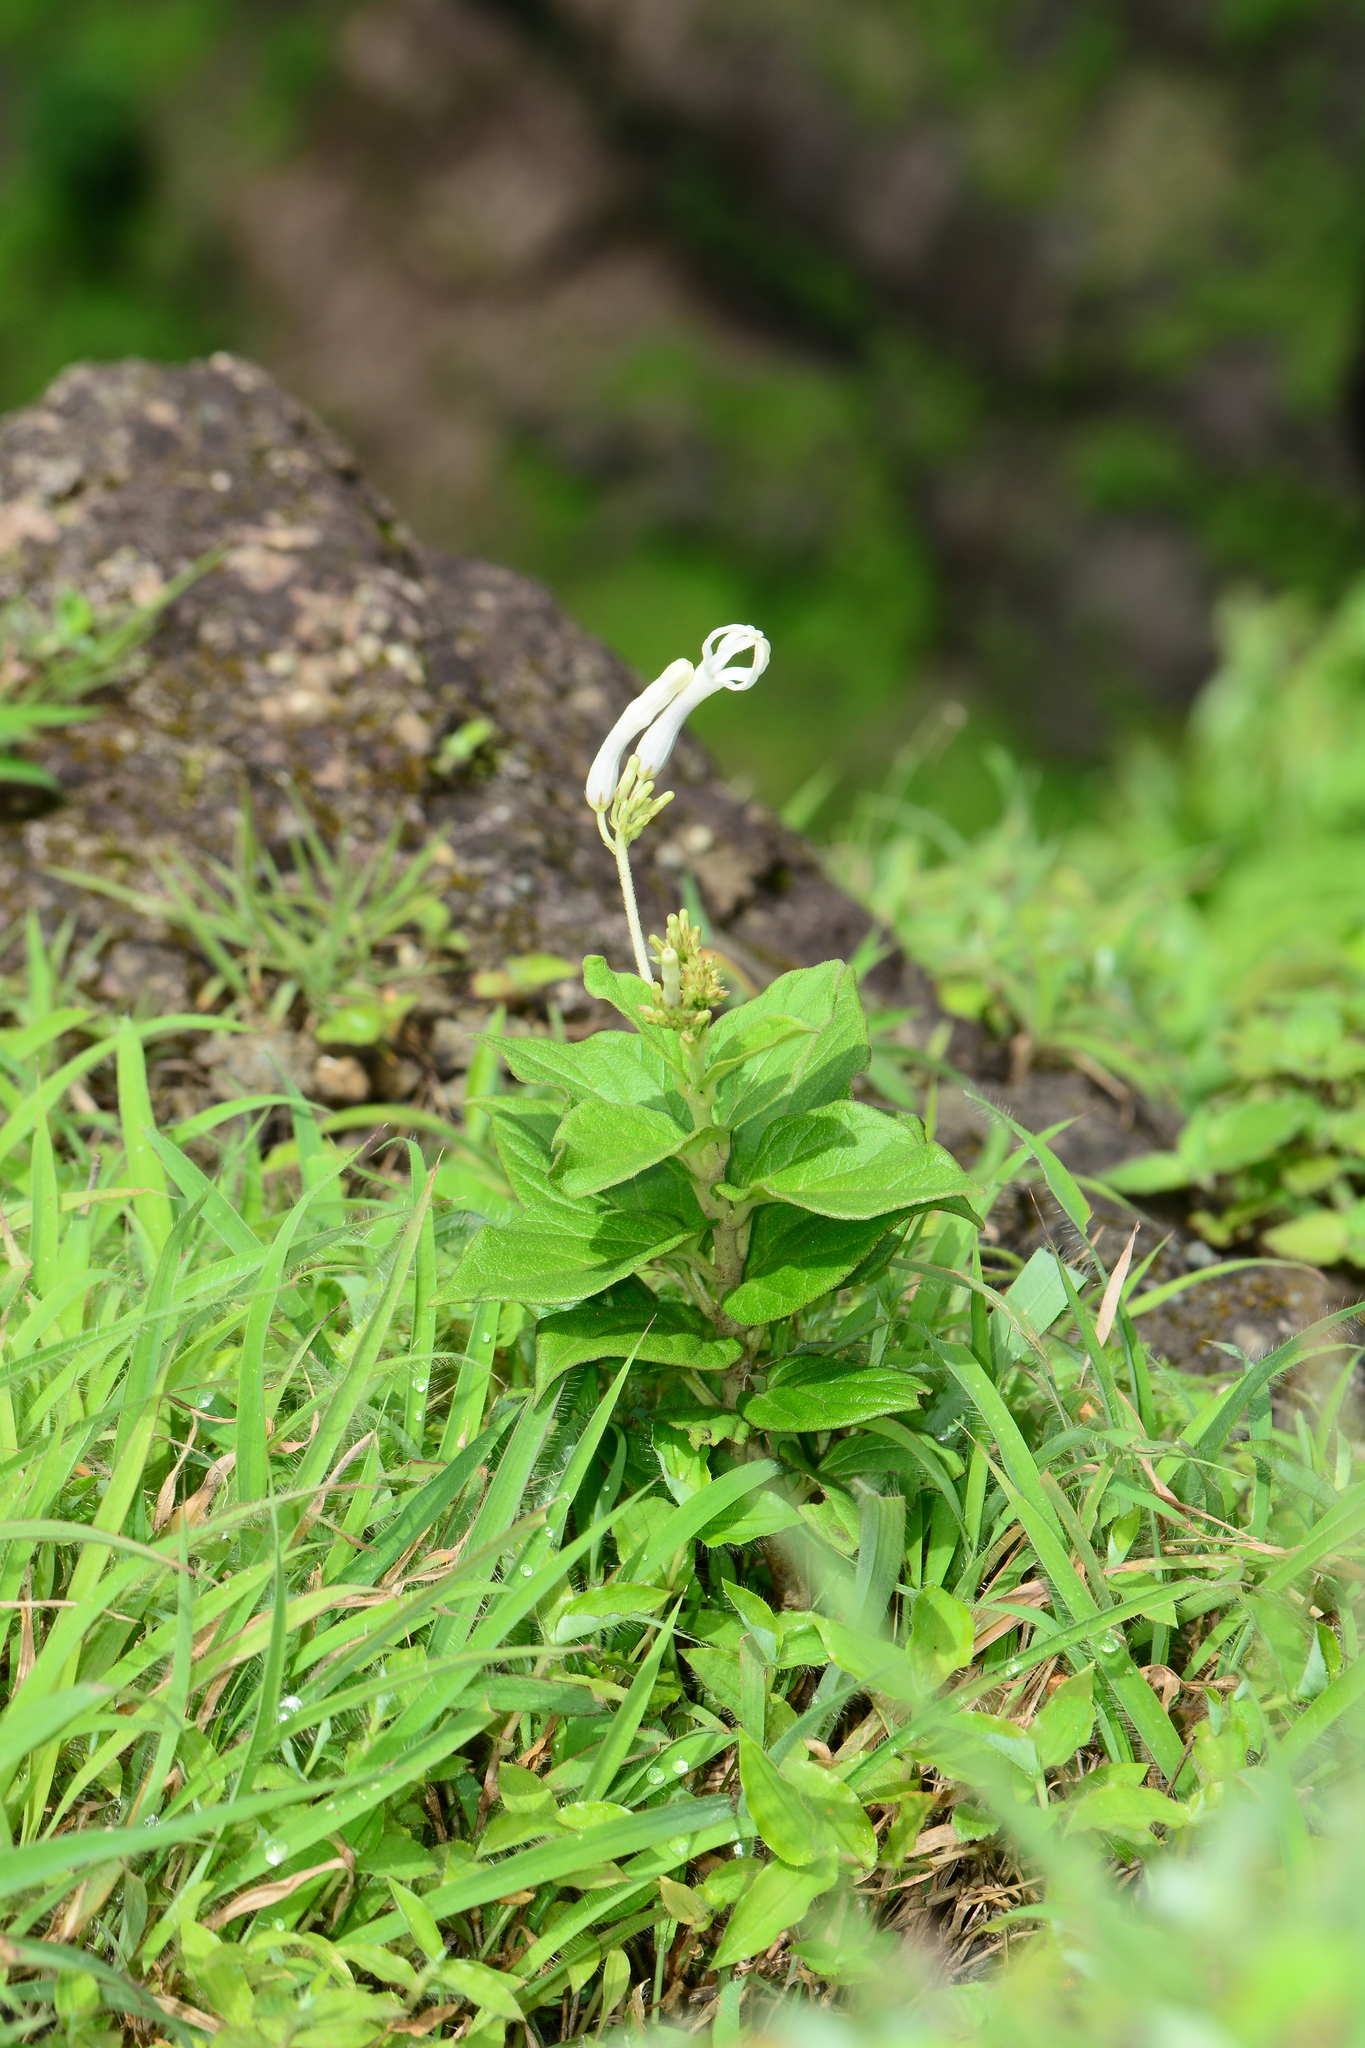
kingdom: Plantae
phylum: Tracheophyta
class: Magnoliopsida
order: Gentianales
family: Apocynaceae
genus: Ceropegia
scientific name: Ceropegia lawii
